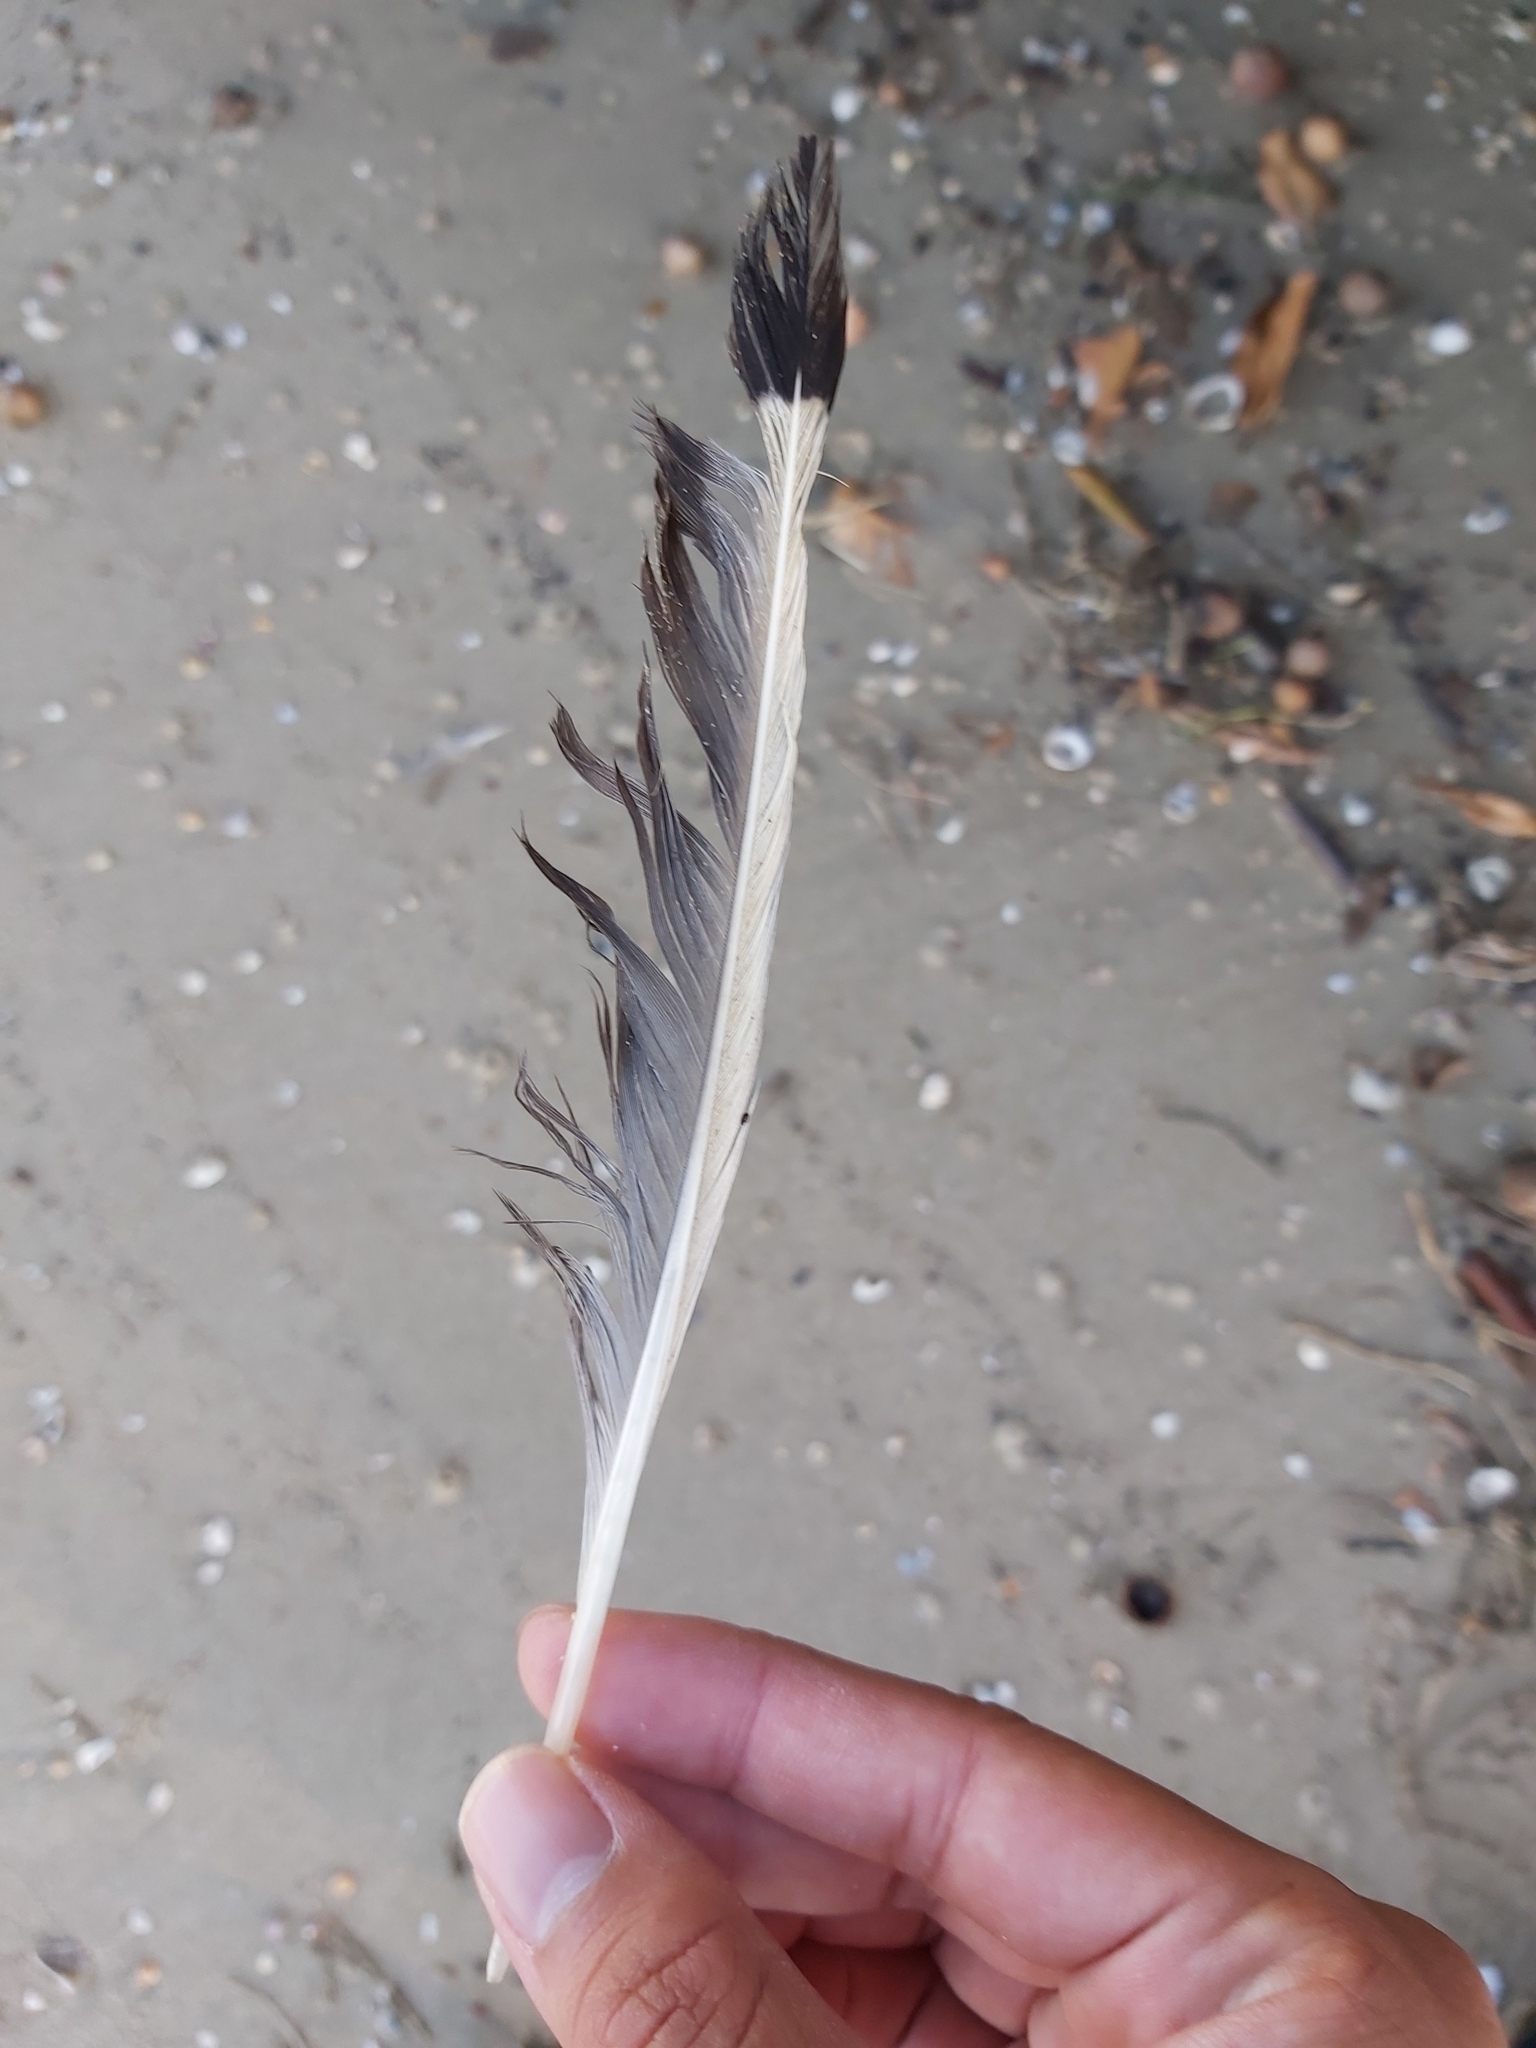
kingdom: Animalia
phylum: Chordata
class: Aves
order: Charadriiformes
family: Laridae
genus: Chroicocephalus
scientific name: Chroicocephalus novaehollandiae
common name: Silver gull
